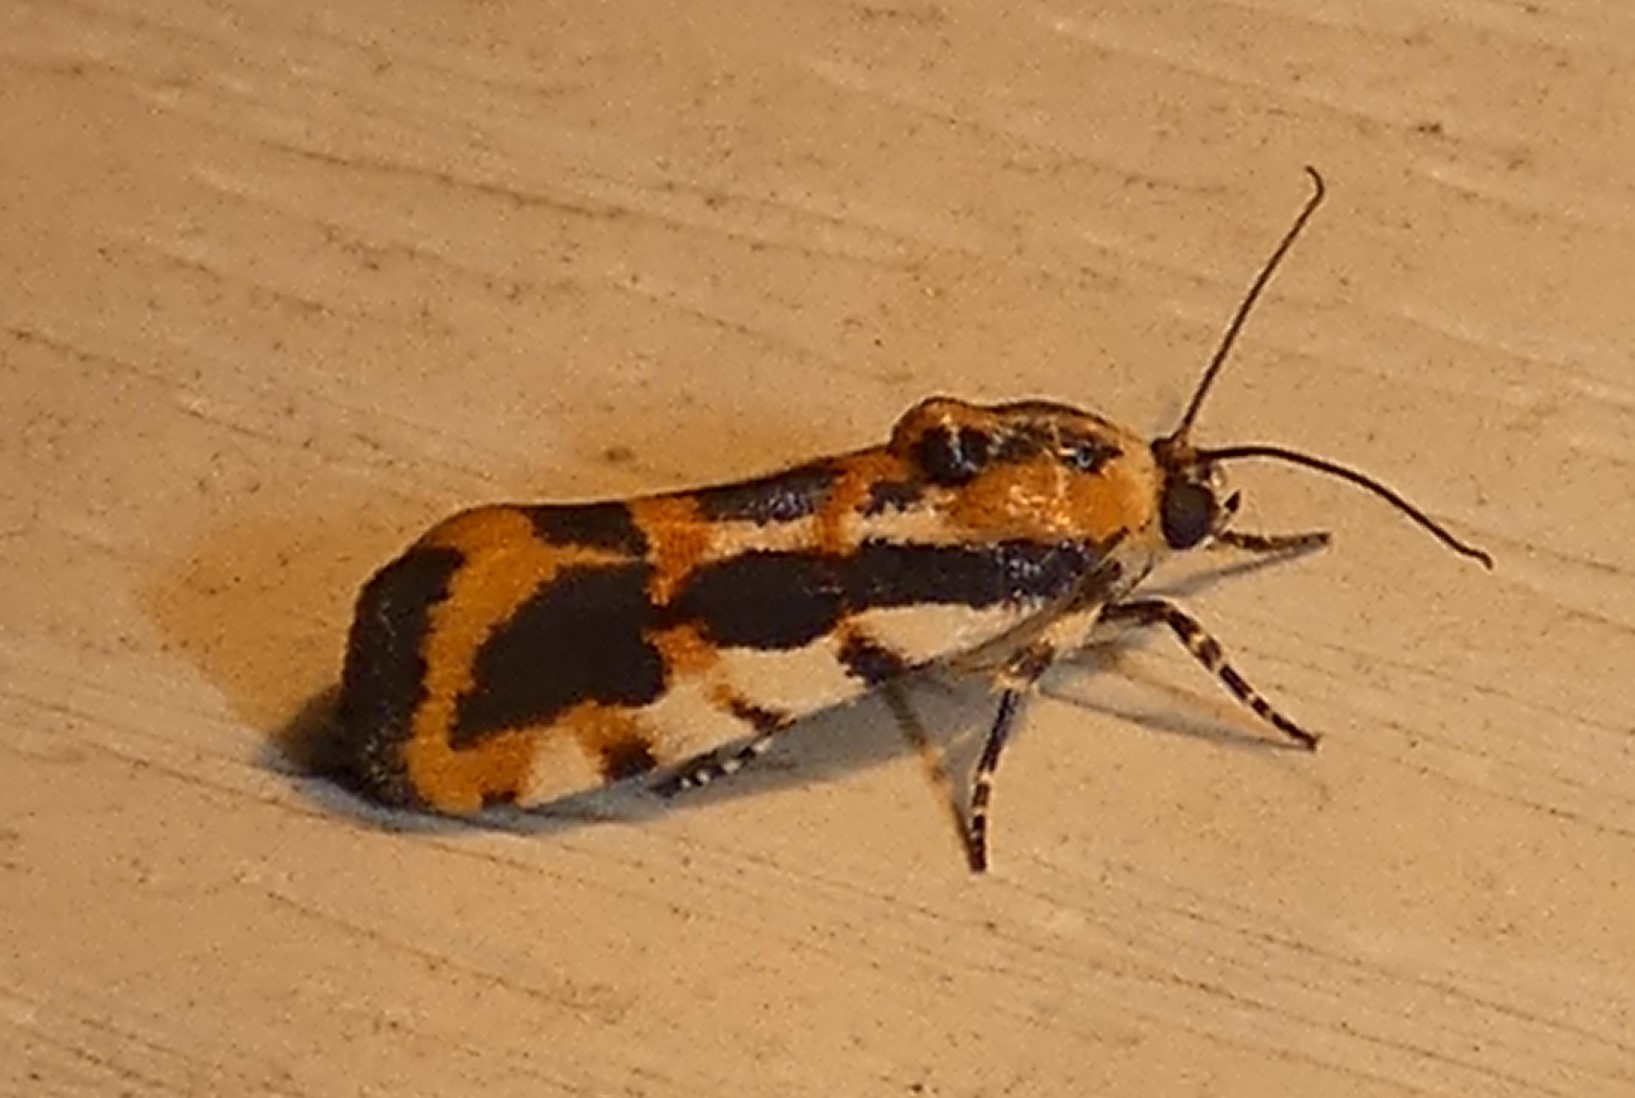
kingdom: Animalia
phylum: Arthropoda
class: Insecta
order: Lepidoptera
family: Noctuidae
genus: Acontia
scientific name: Acontia leo
